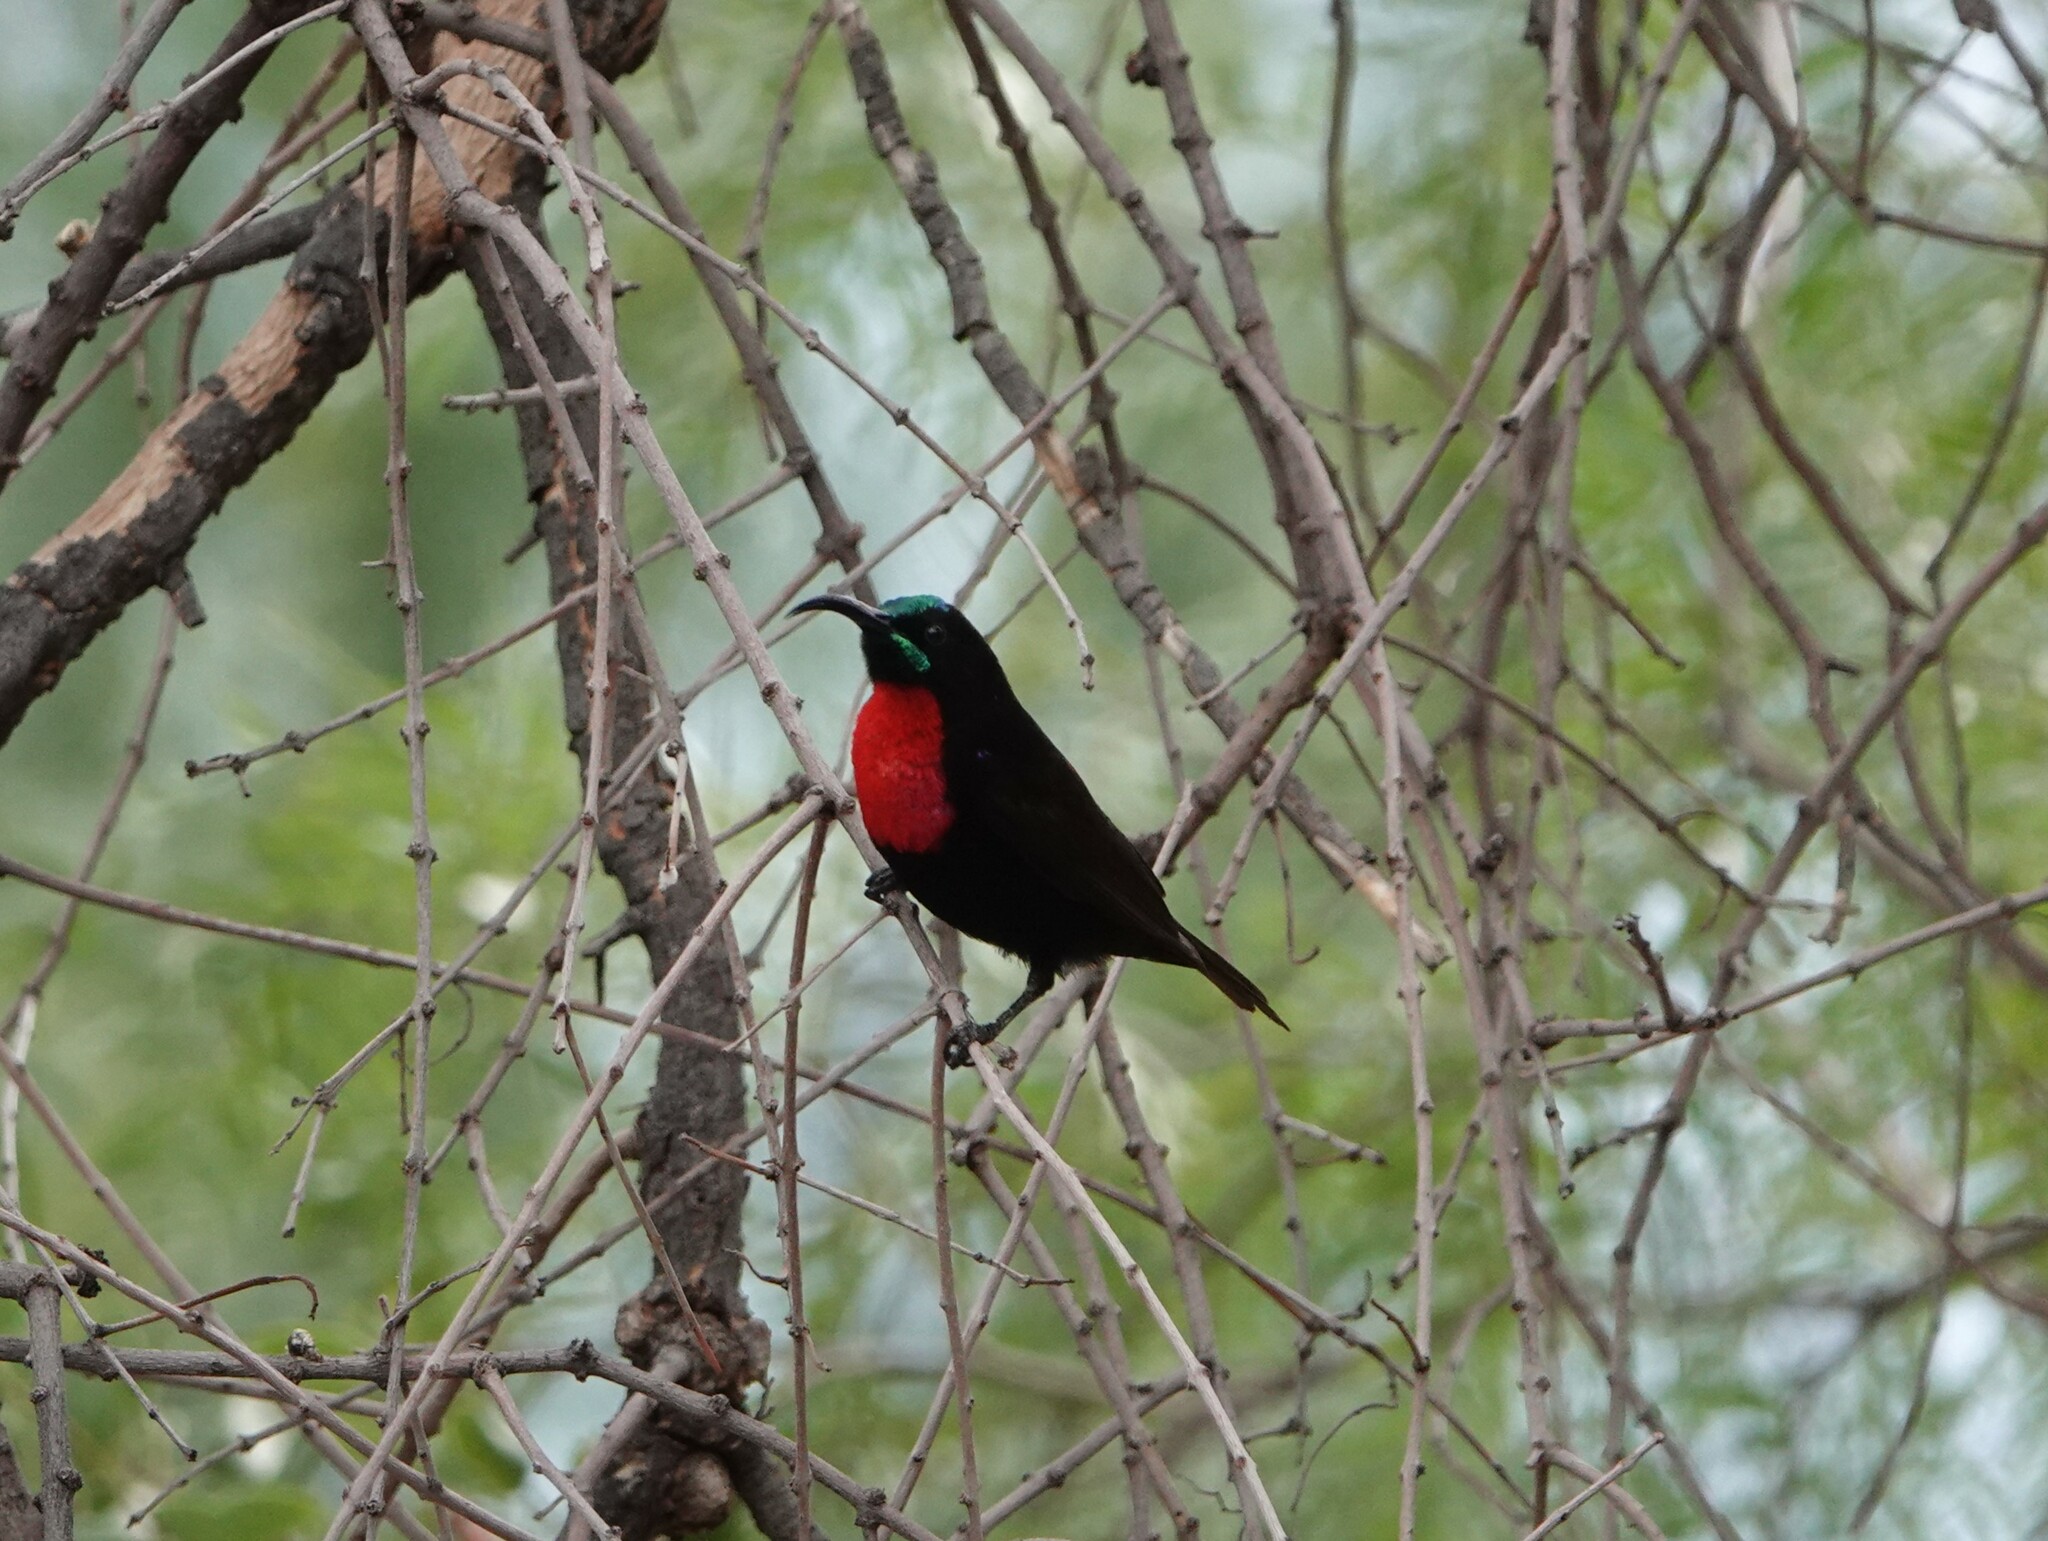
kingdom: Animalia
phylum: Chordata
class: Aves
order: Passeriformes
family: Nectariniidae
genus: Chalcomitra
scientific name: Chalcomitra senegalensis
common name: Scarlet-chested sunbird
